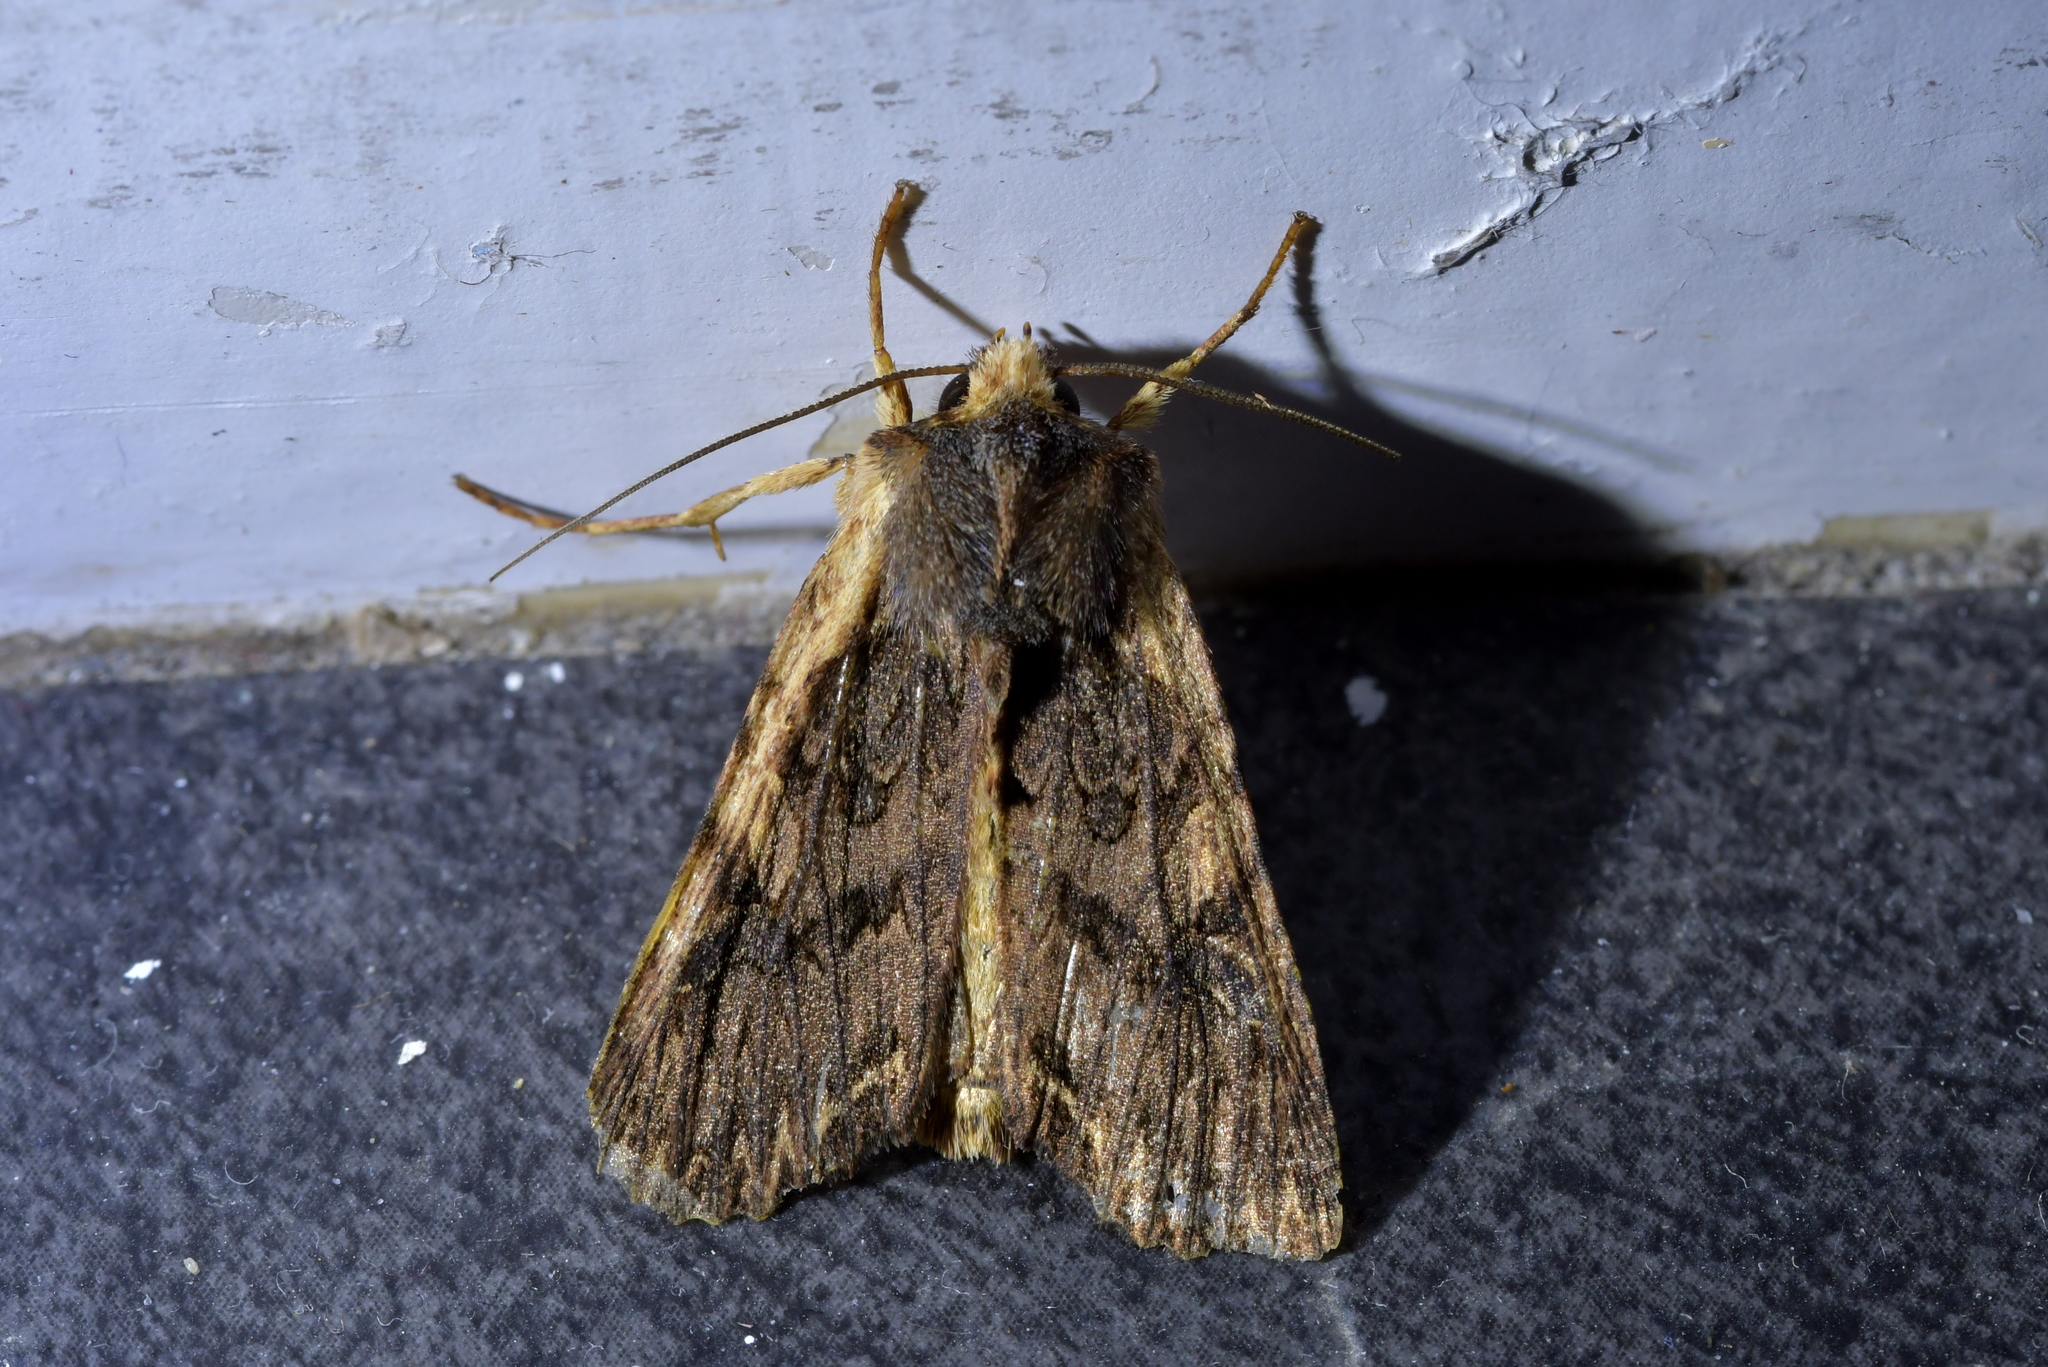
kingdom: Animalia
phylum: Arthropoda
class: Insecta
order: Lepidoptera
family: Noctuidae
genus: Meterana
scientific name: Meterana alcyone
